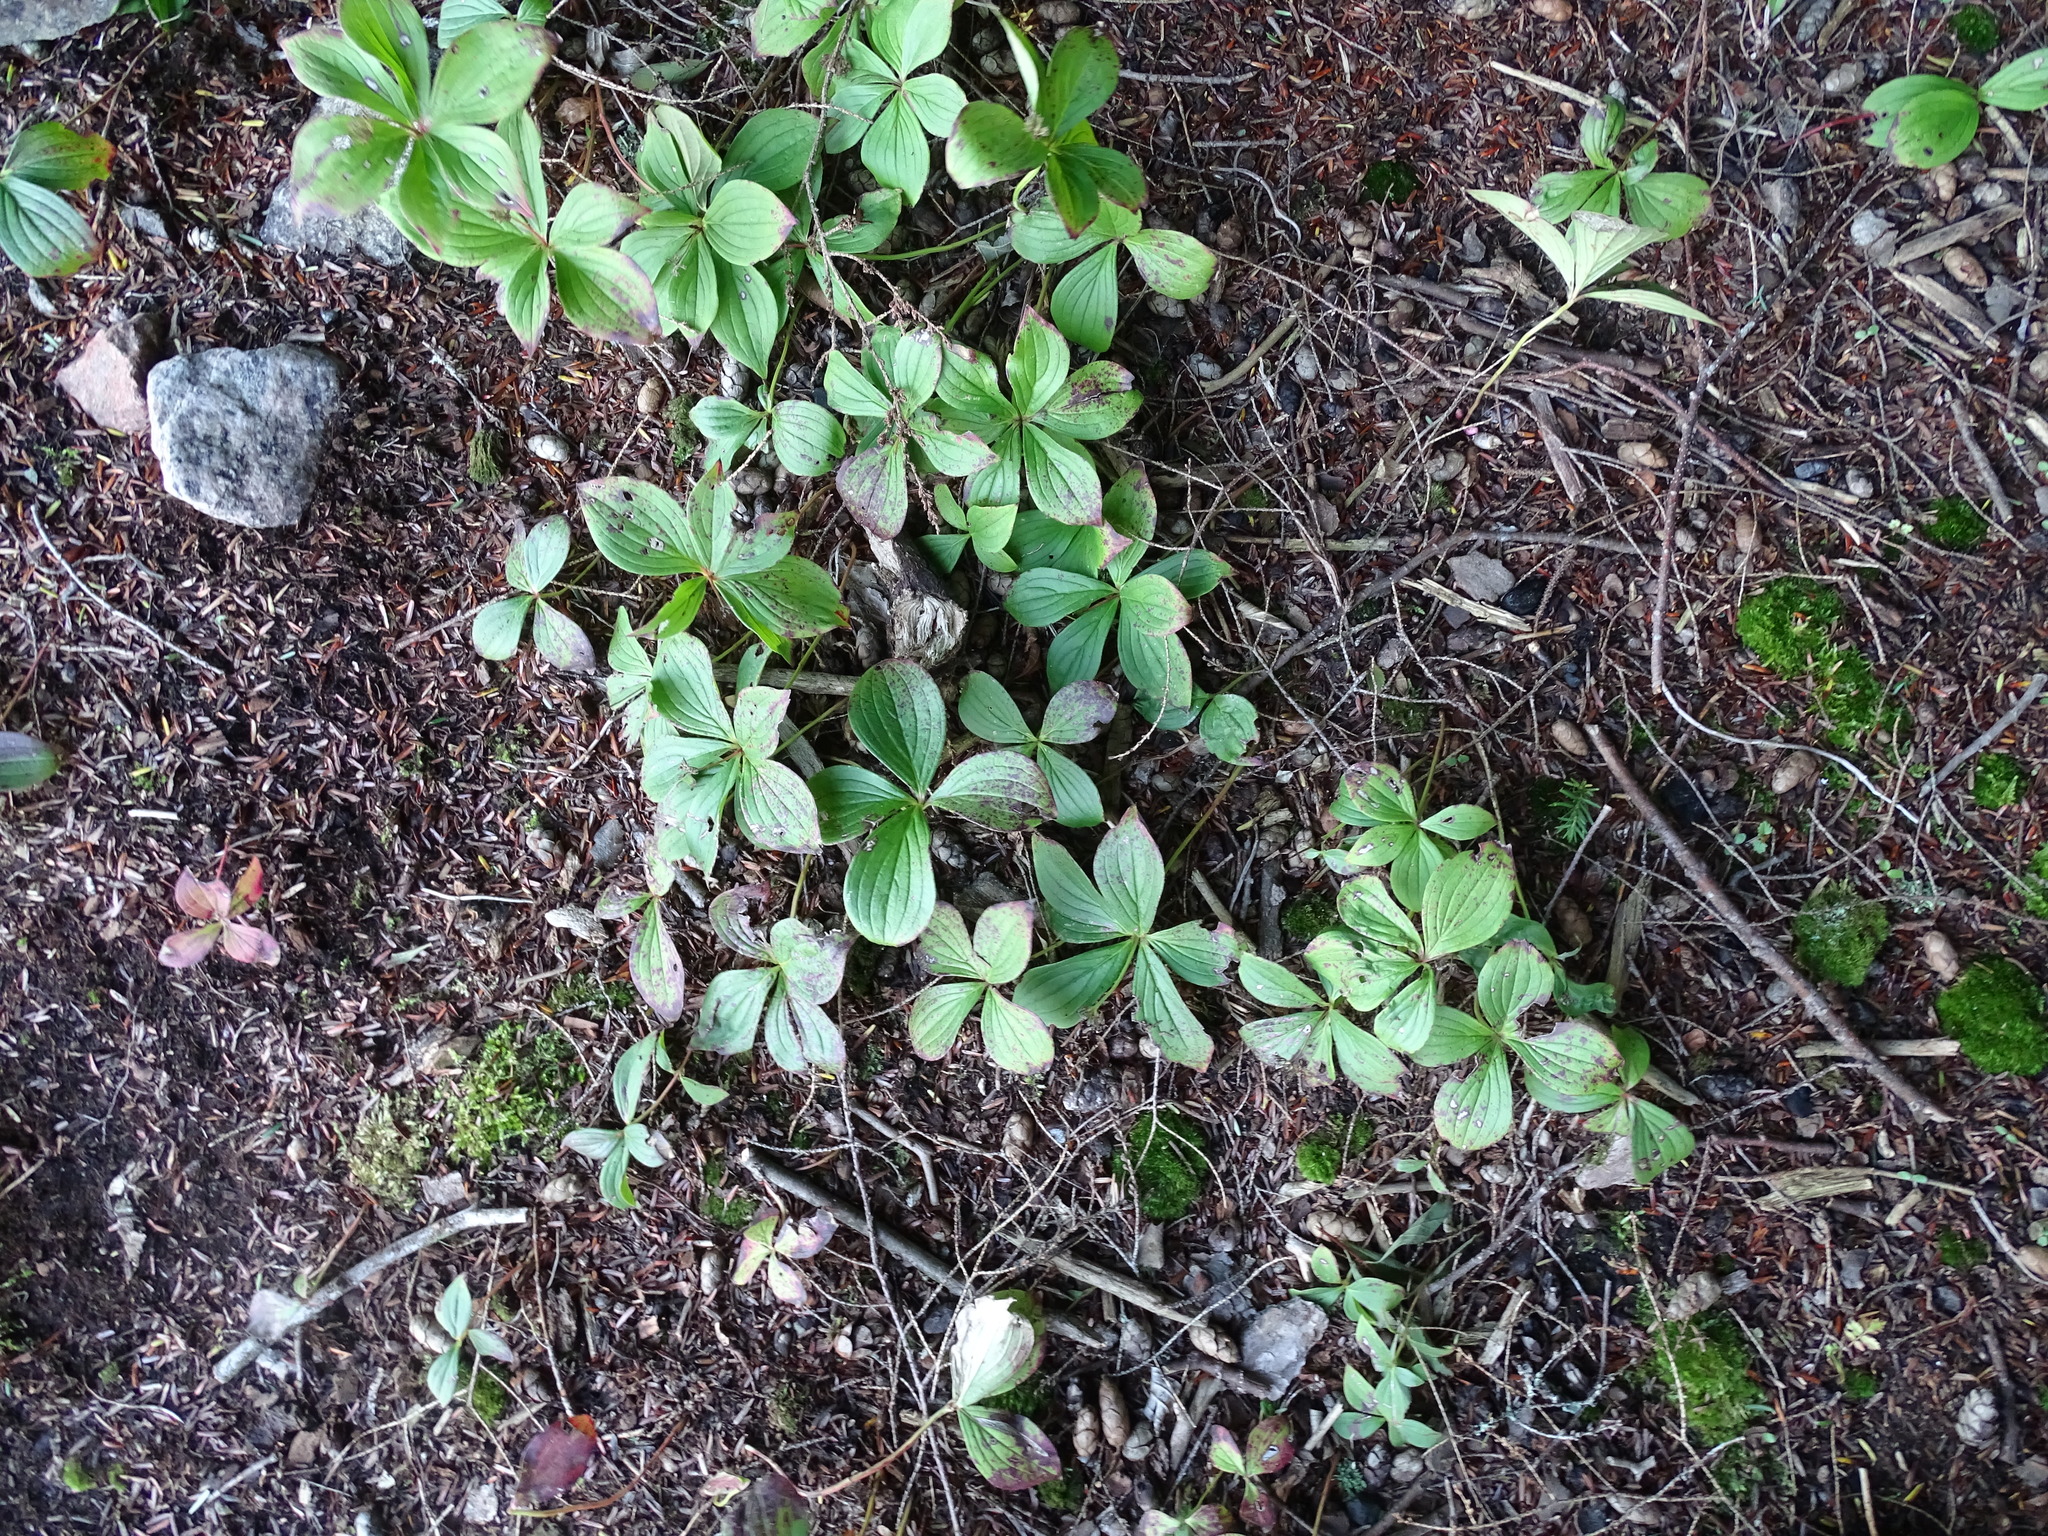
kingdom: Plantae
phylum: Tracheophyta
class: Magnoliopsida
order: Cornales
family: Cornaceae
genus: Cornus
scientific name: Cornus canadensis
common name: Creeping dogwood
